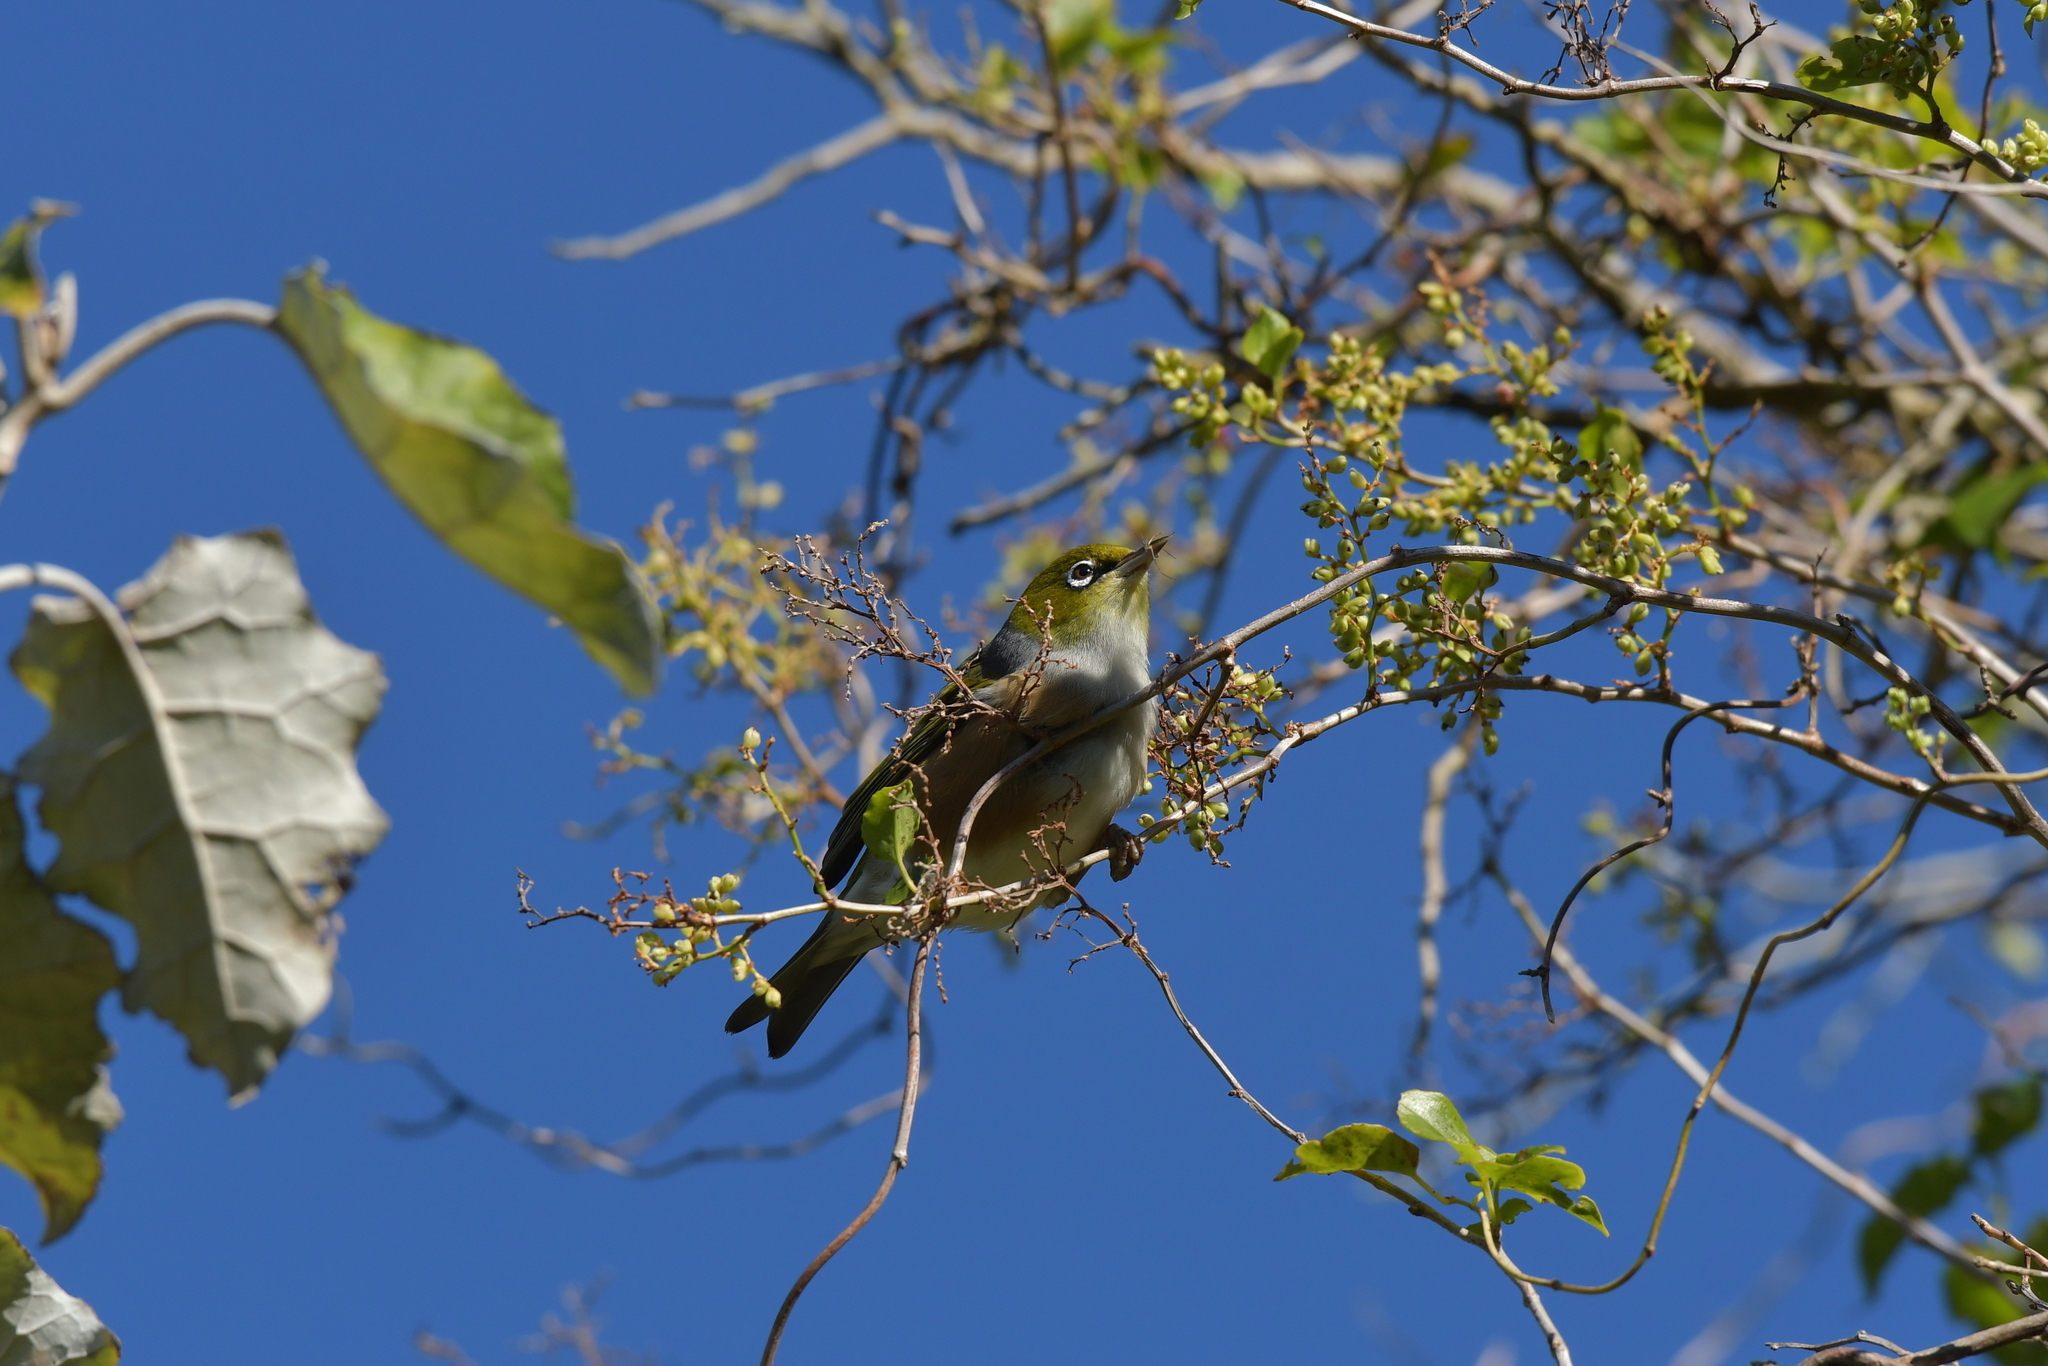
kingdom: Animalia
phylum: Chordata
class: Aves
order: Passeriformes
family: Zosteropidae
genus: Zosterops
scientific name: Zosterops lateralis
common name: Silvereye
